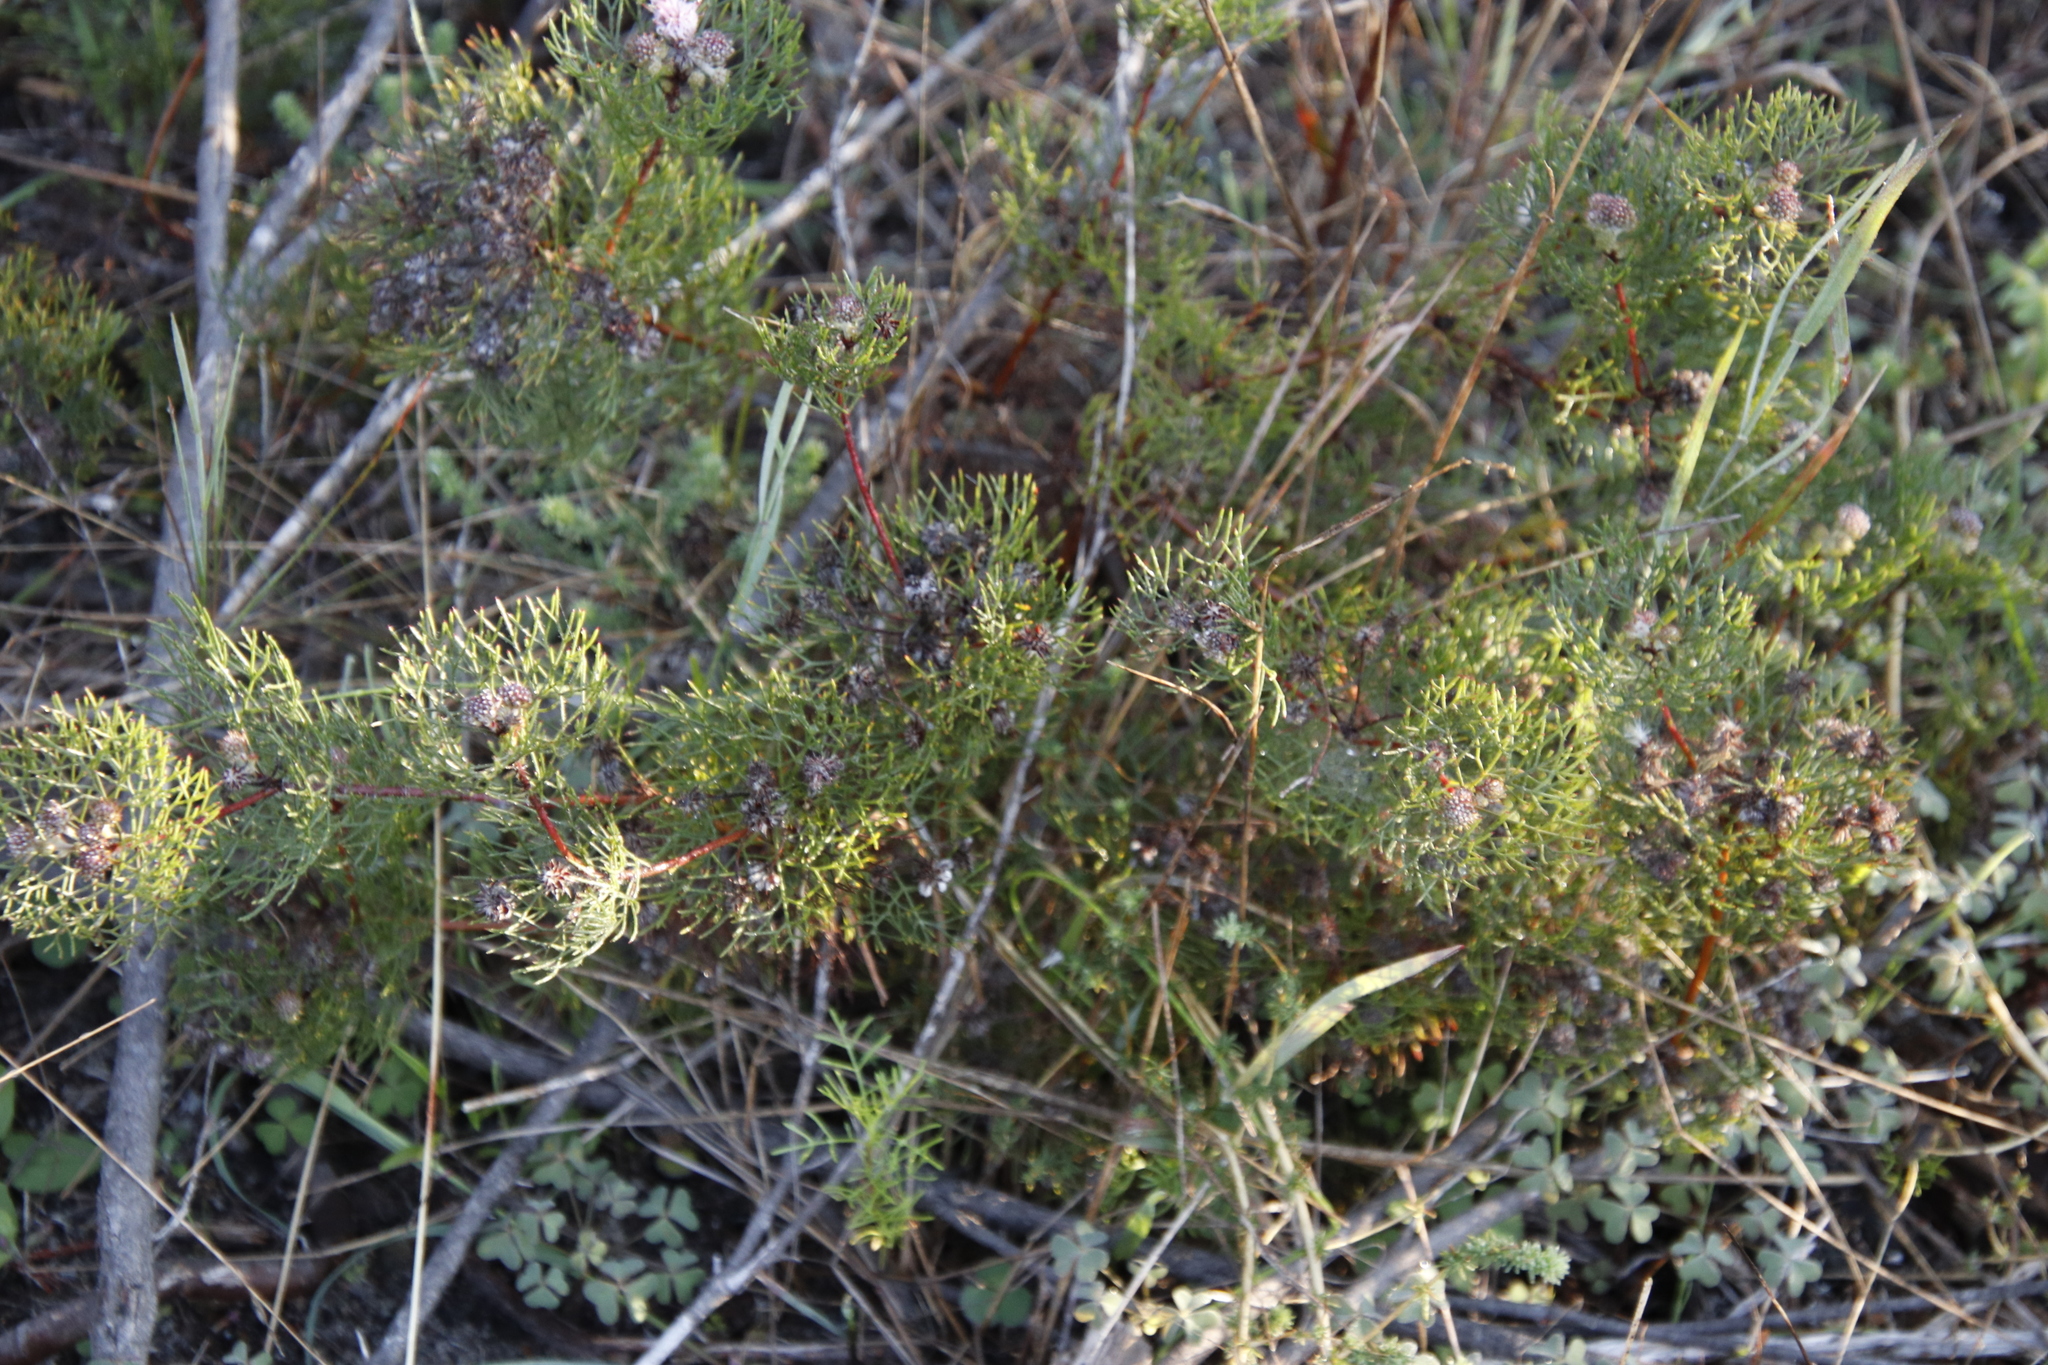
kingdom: Plantae
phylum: Tracheophyta
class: Magnoliopsida
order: Proteales
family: Proteaceae
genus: Serruria
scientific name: Serruria fasciflora
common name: Common pin spiderhead
